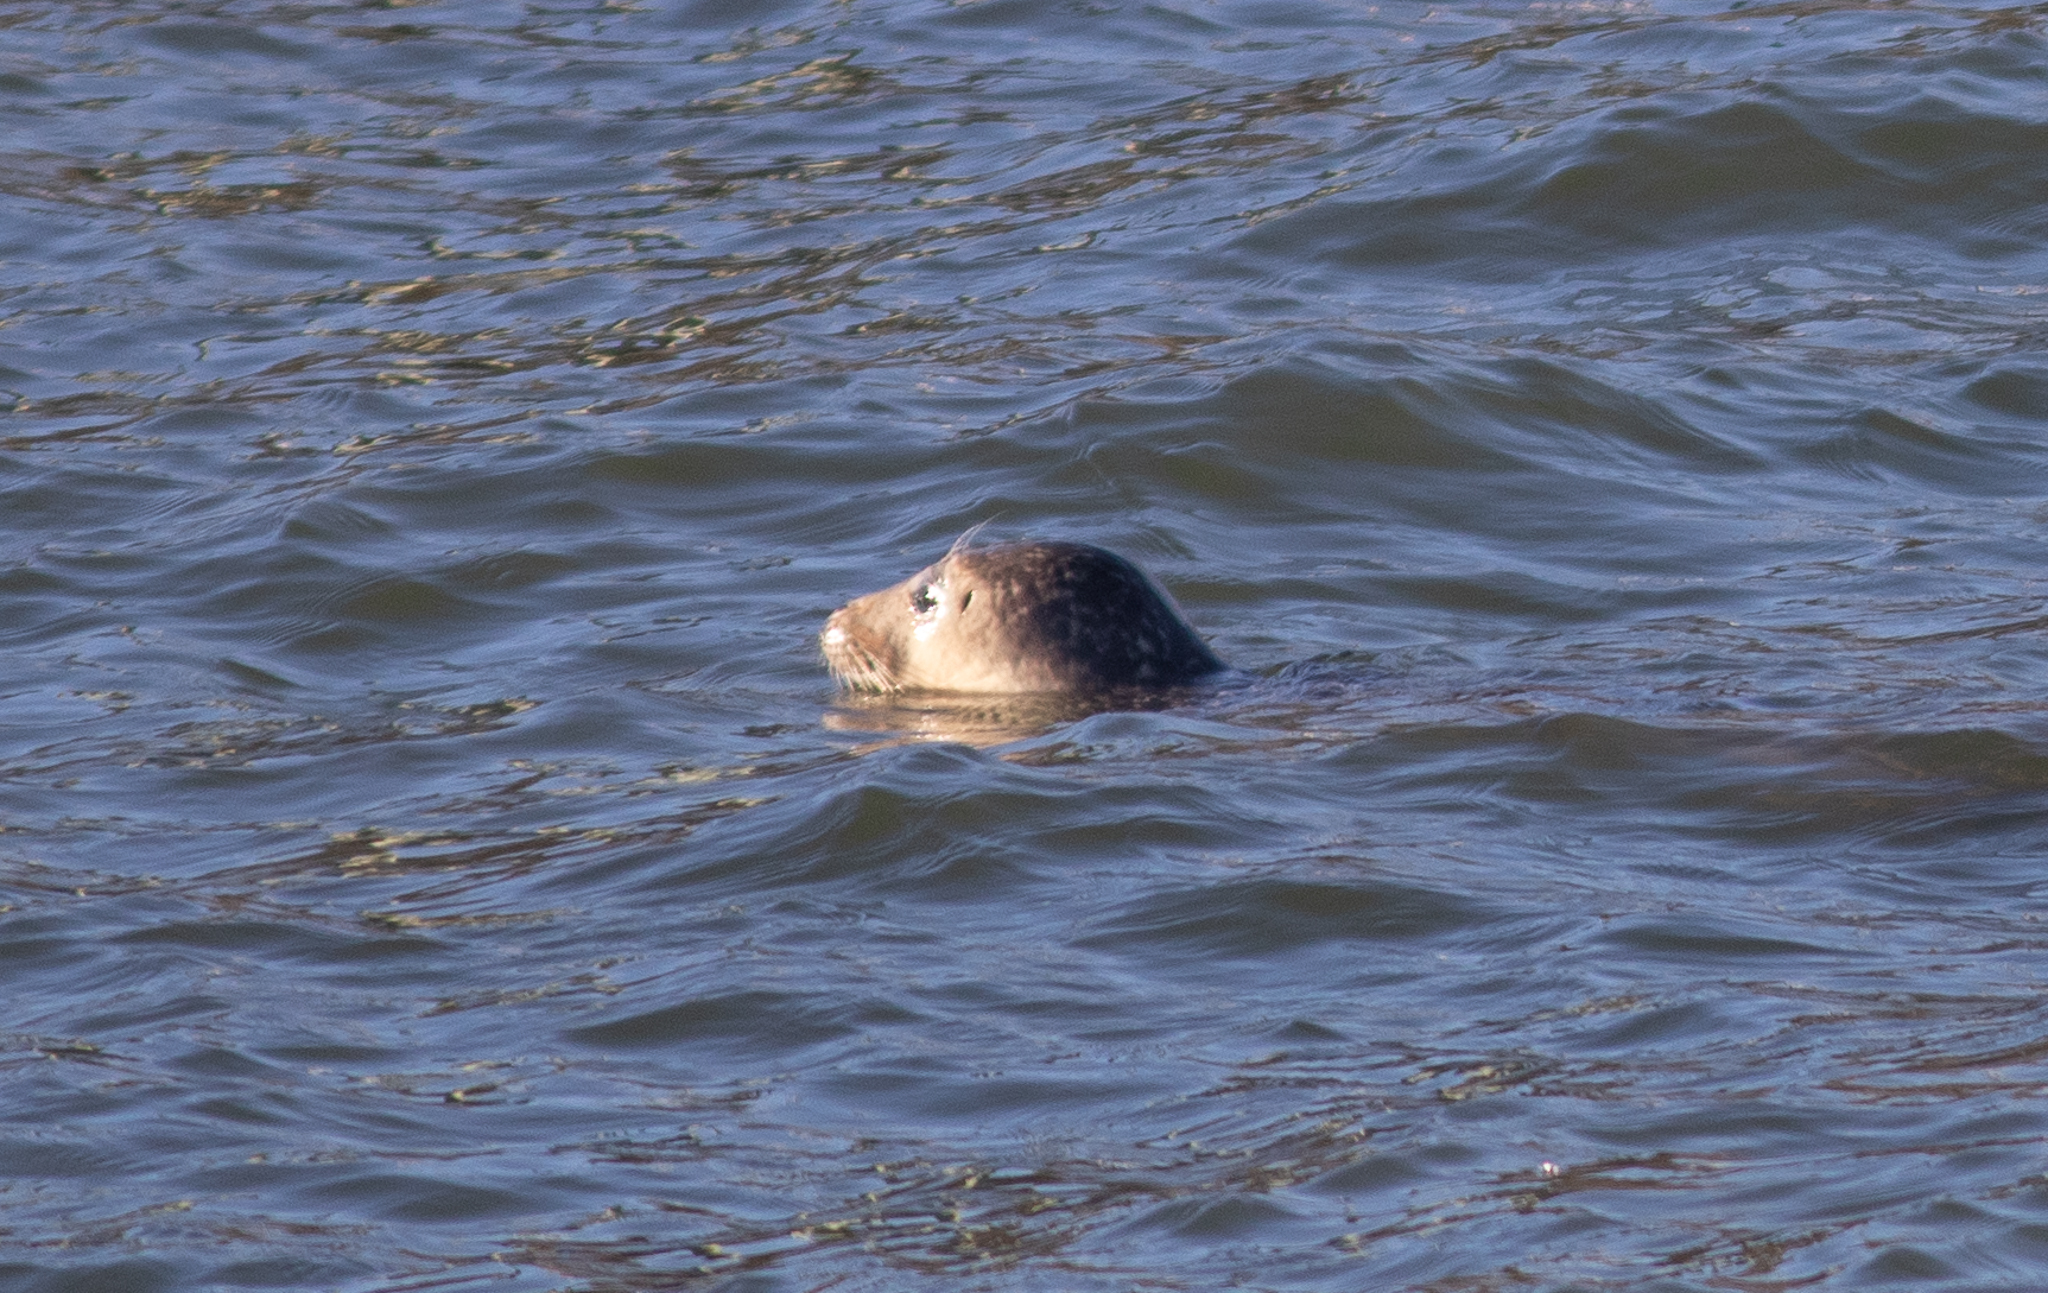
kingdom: Animalia
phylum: Chordata
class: Mammalia
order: Carnivora
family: Phocidae
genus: Phoca
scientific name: Phoca vitulina
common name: Harbor seal
